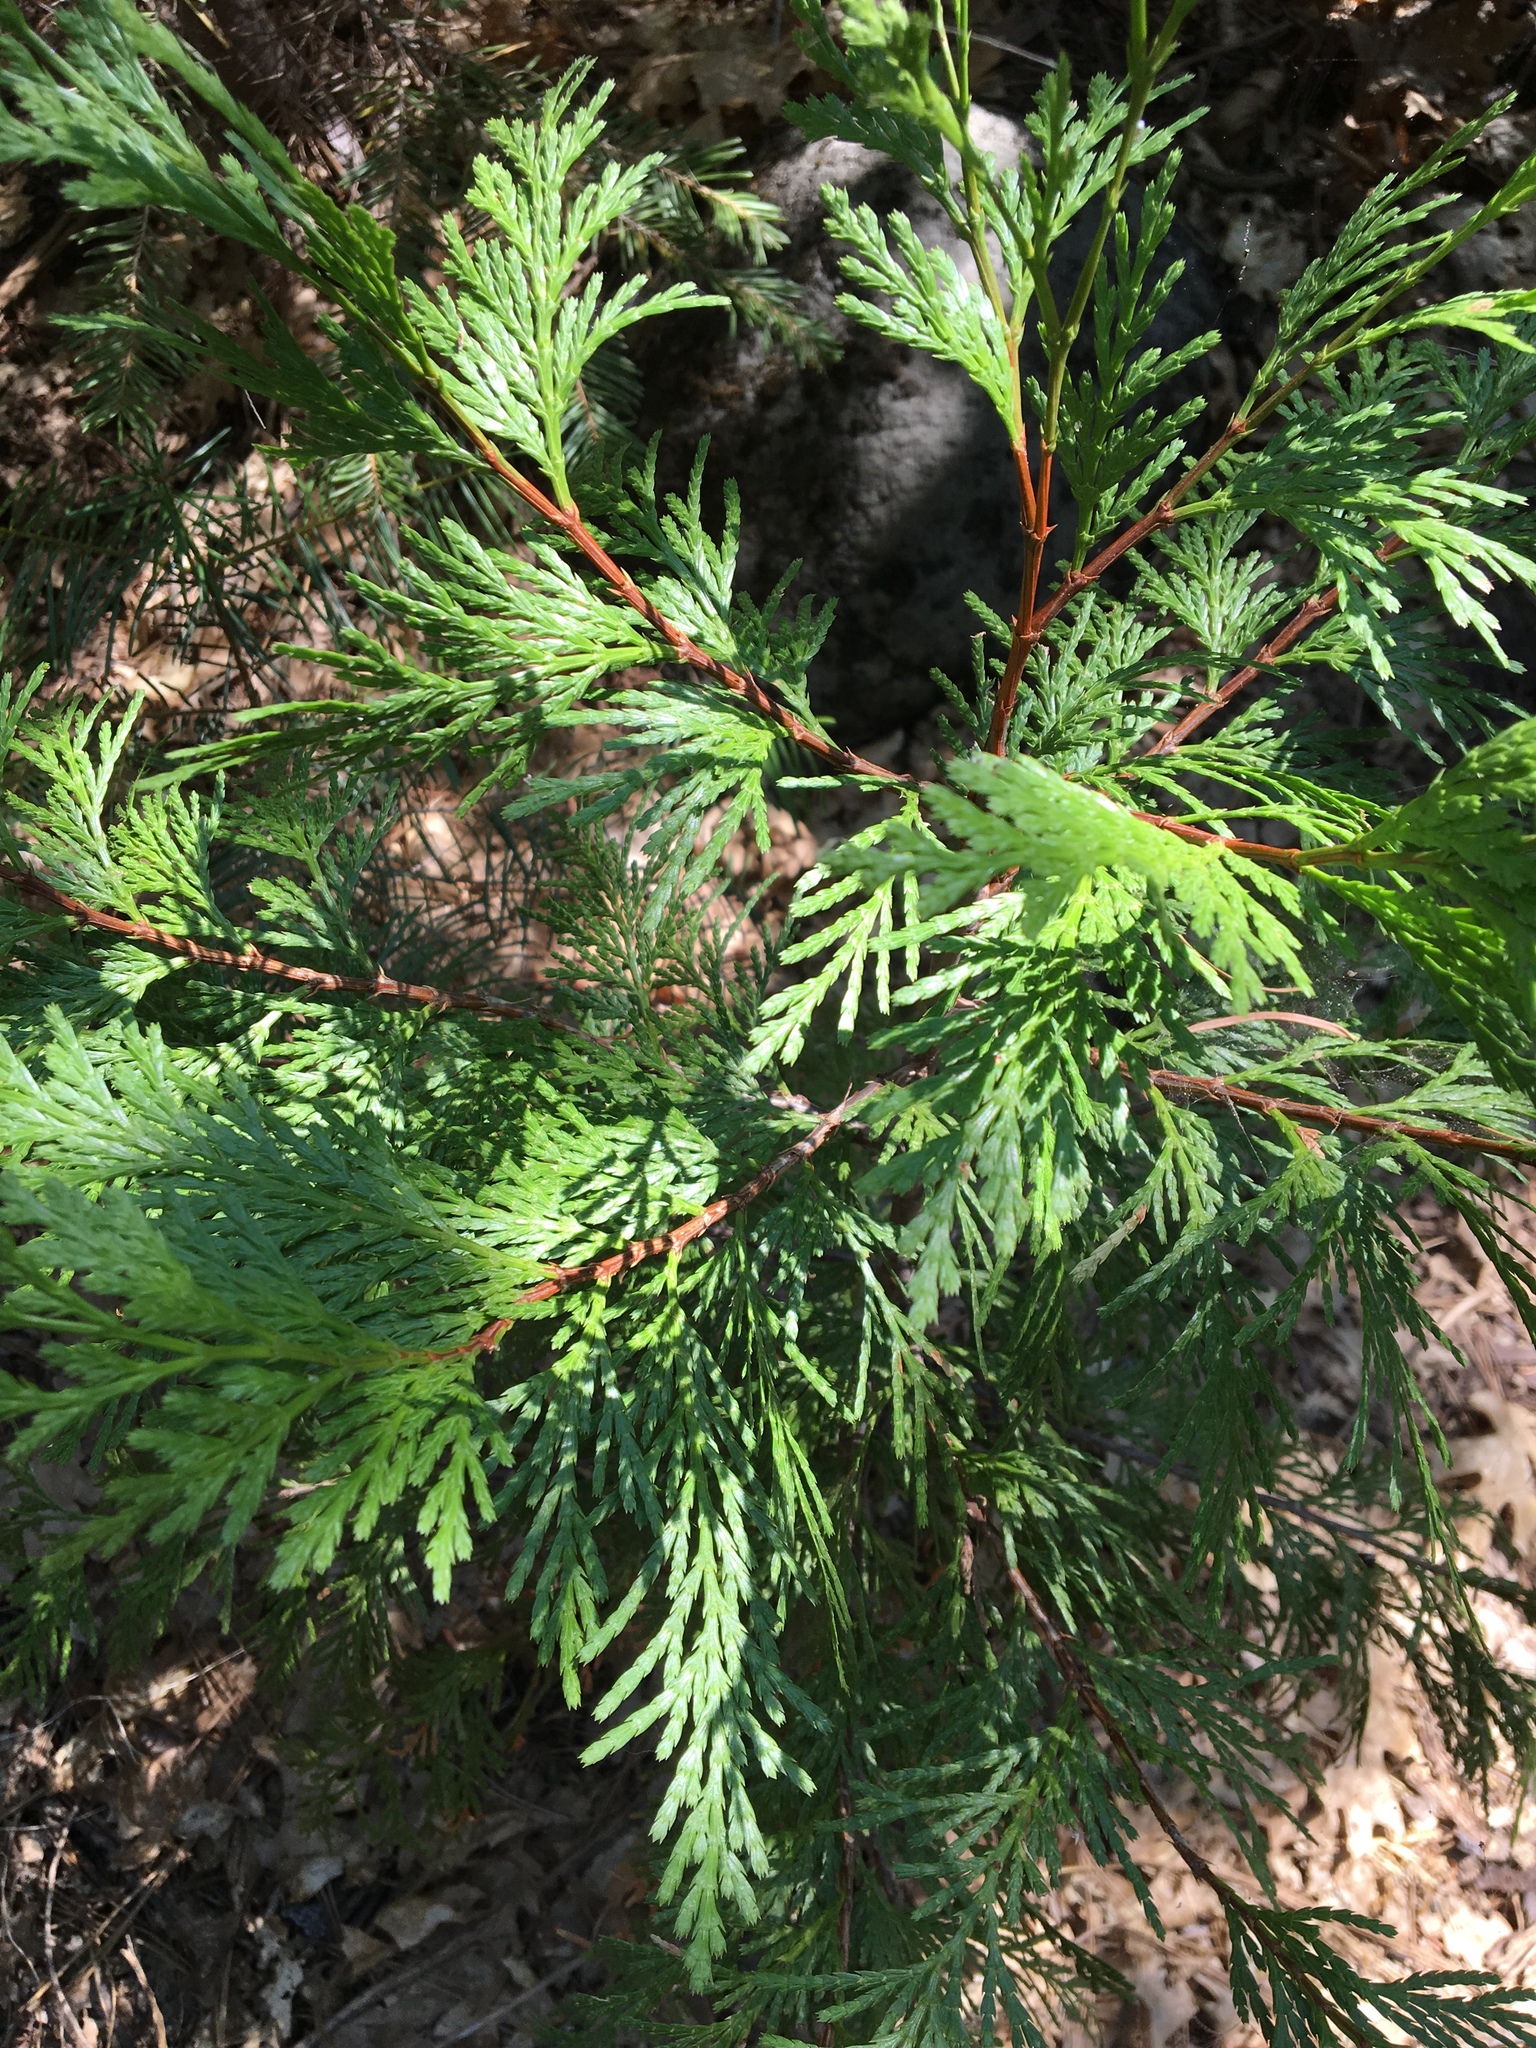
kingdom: Plantae
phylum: Tracheophyta
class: Pinopsida
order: Pinales
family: Cupressaceae
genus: Calocedrus
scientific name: Calocedrus decurrens
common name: Californian incense-cedar
